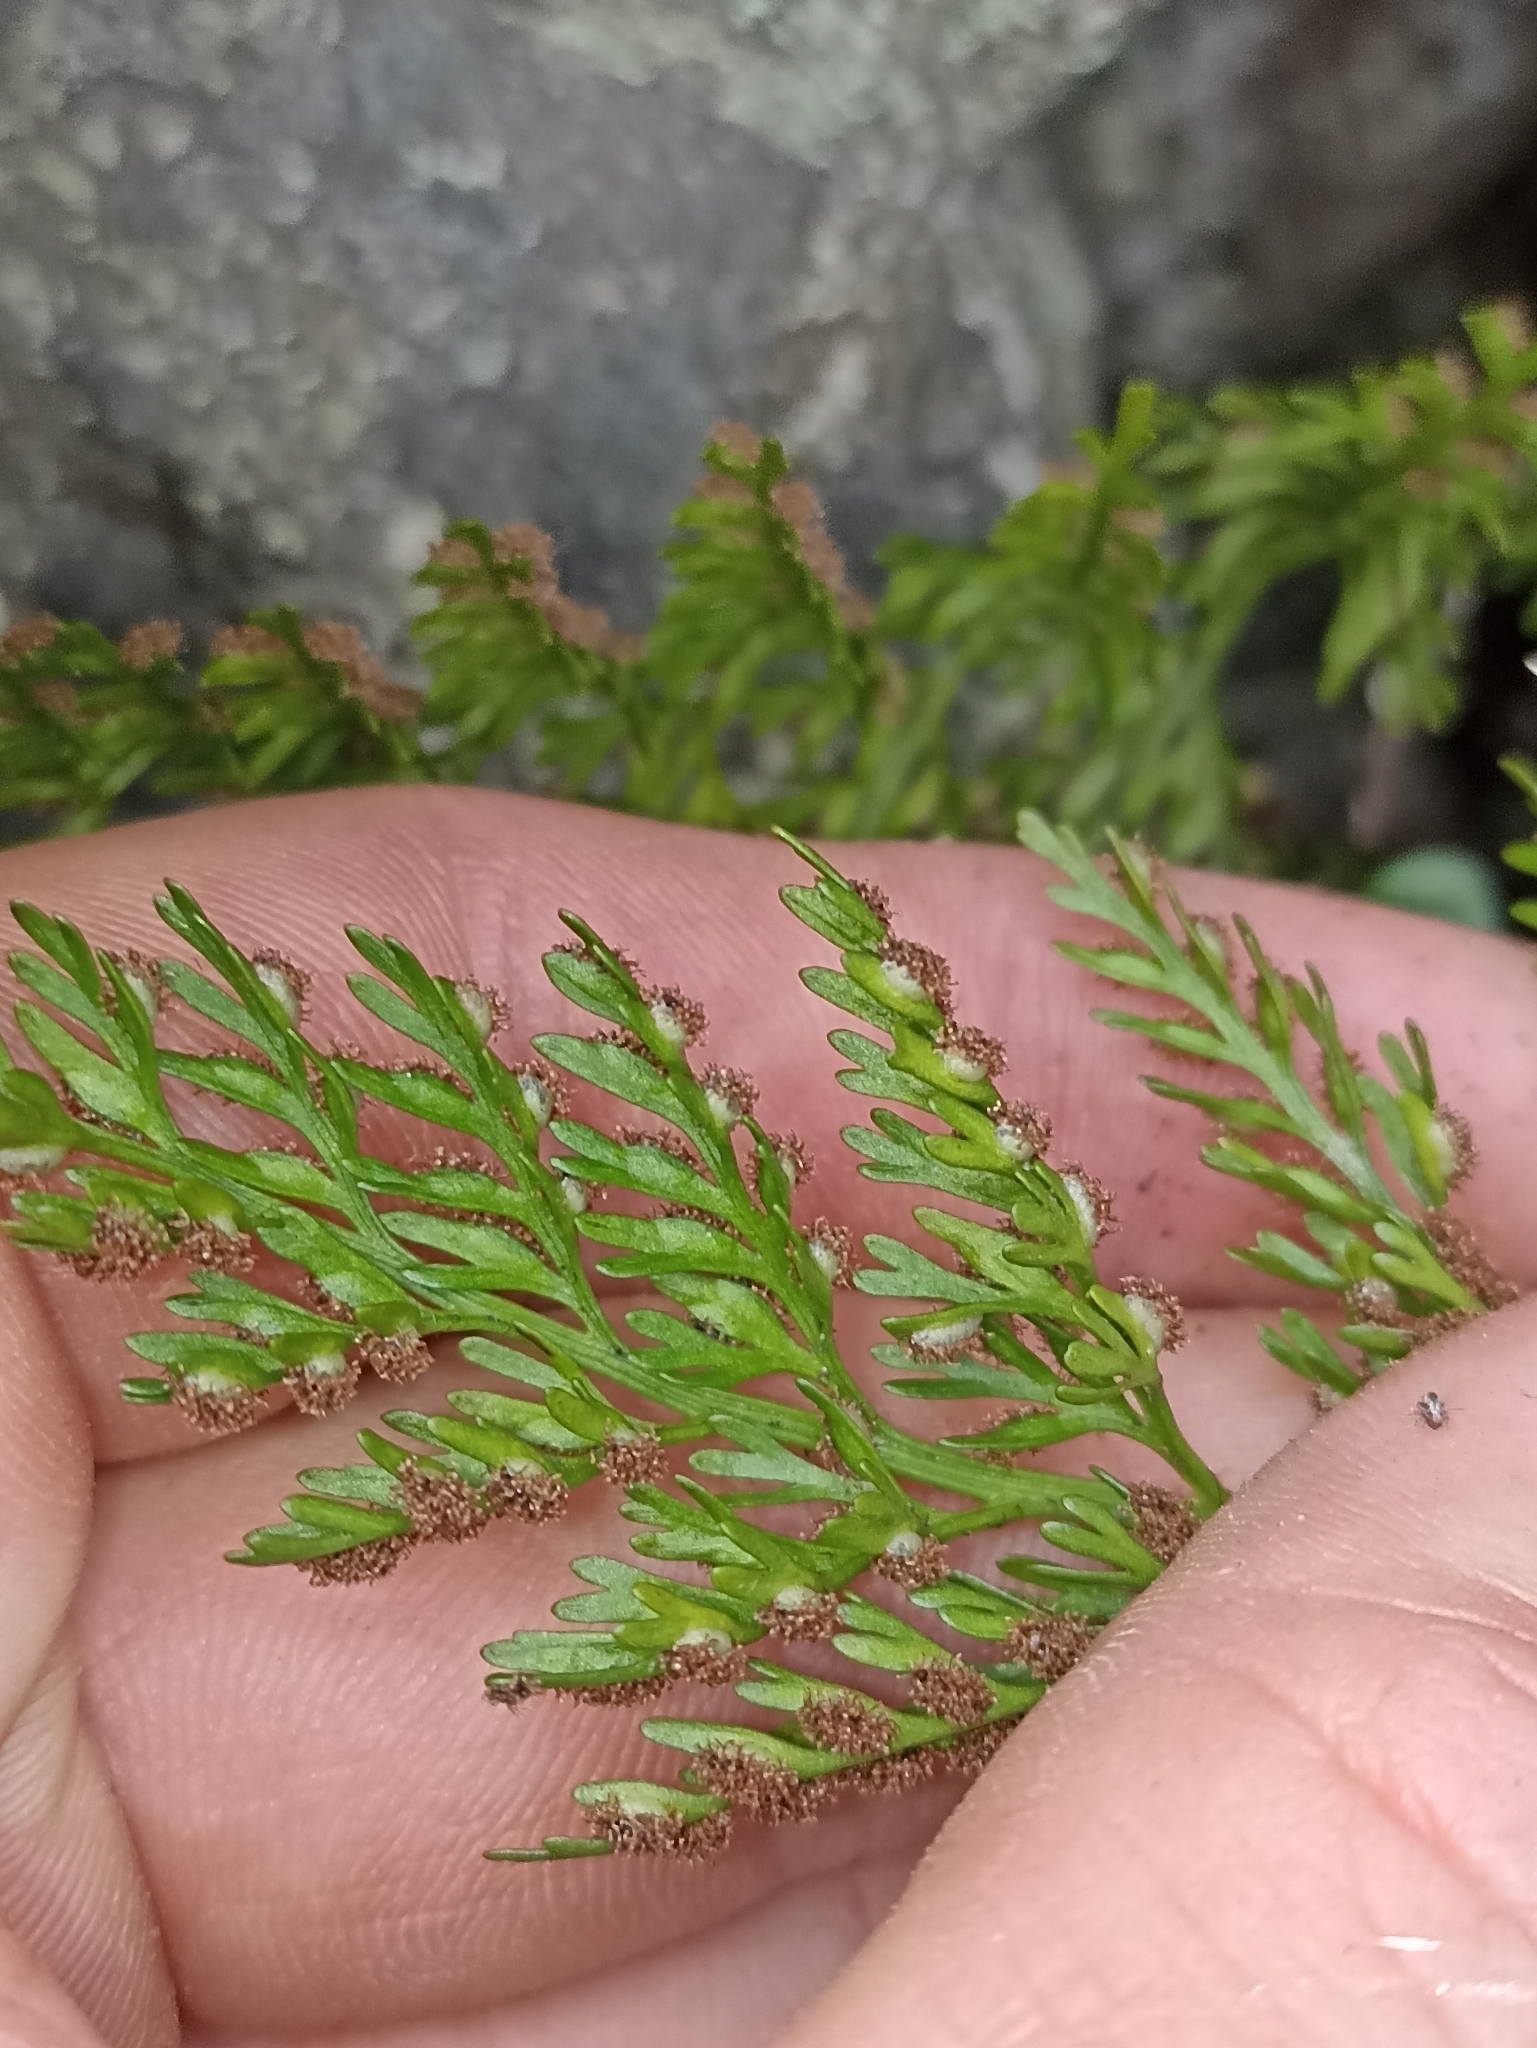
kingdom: Plantae
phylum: Tracheophyta
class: Polypodiopsida
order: Polypodiales
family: Aspleniaceae
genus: Asplenium
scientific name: Asplenium richardii
